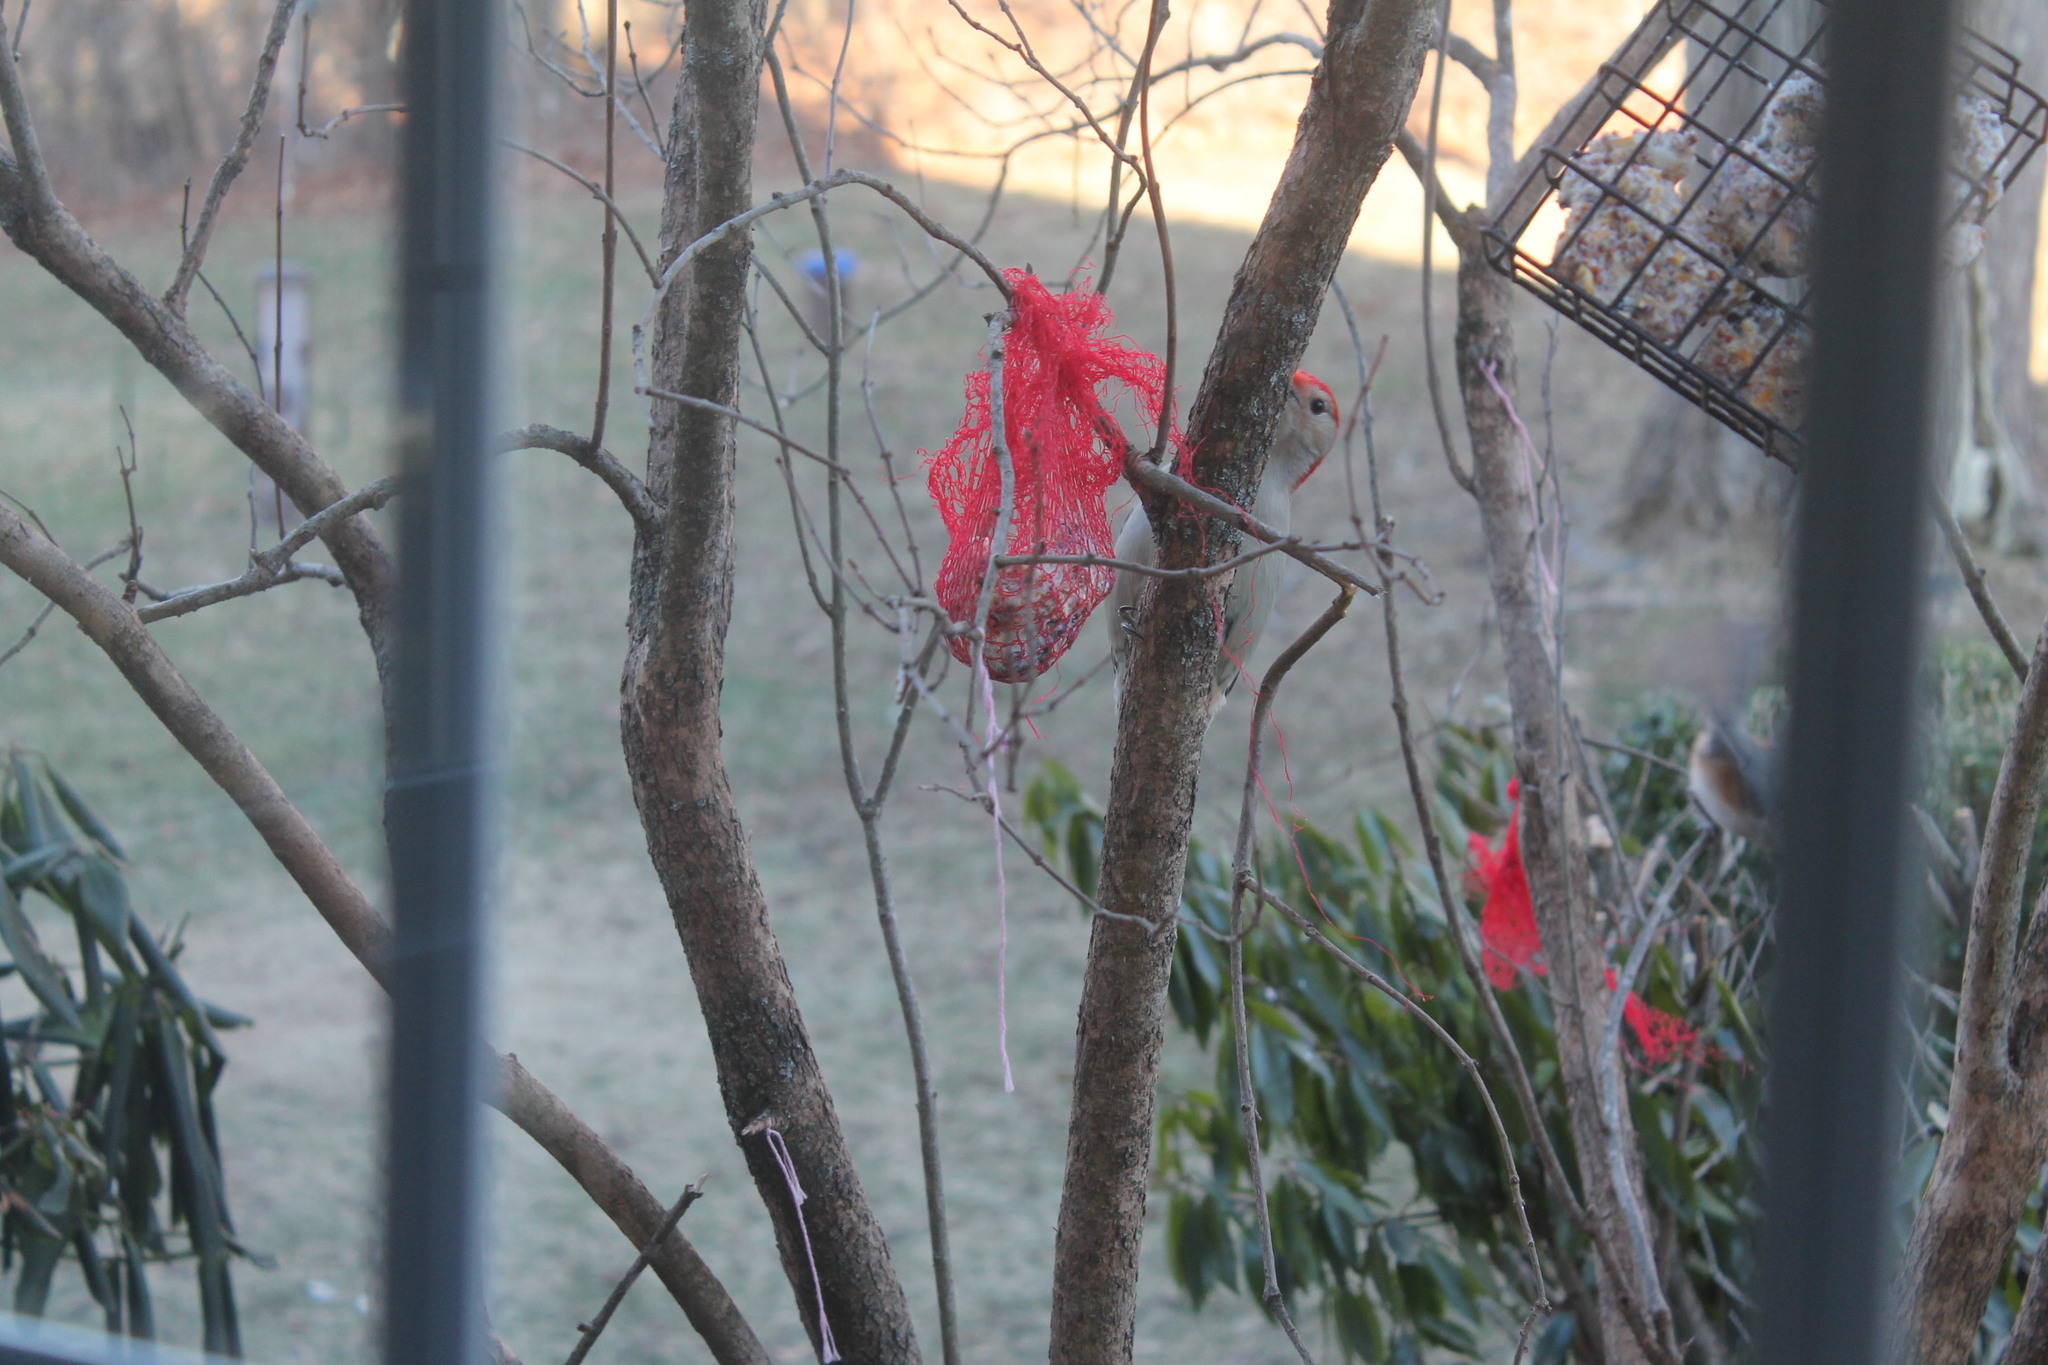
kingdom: Animalia
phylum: Chordata
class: Aves
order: Piciformes
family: Picidae
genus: Melanerpes
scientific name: Melanerpes carolinus
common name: Red-bellied woodpecker
